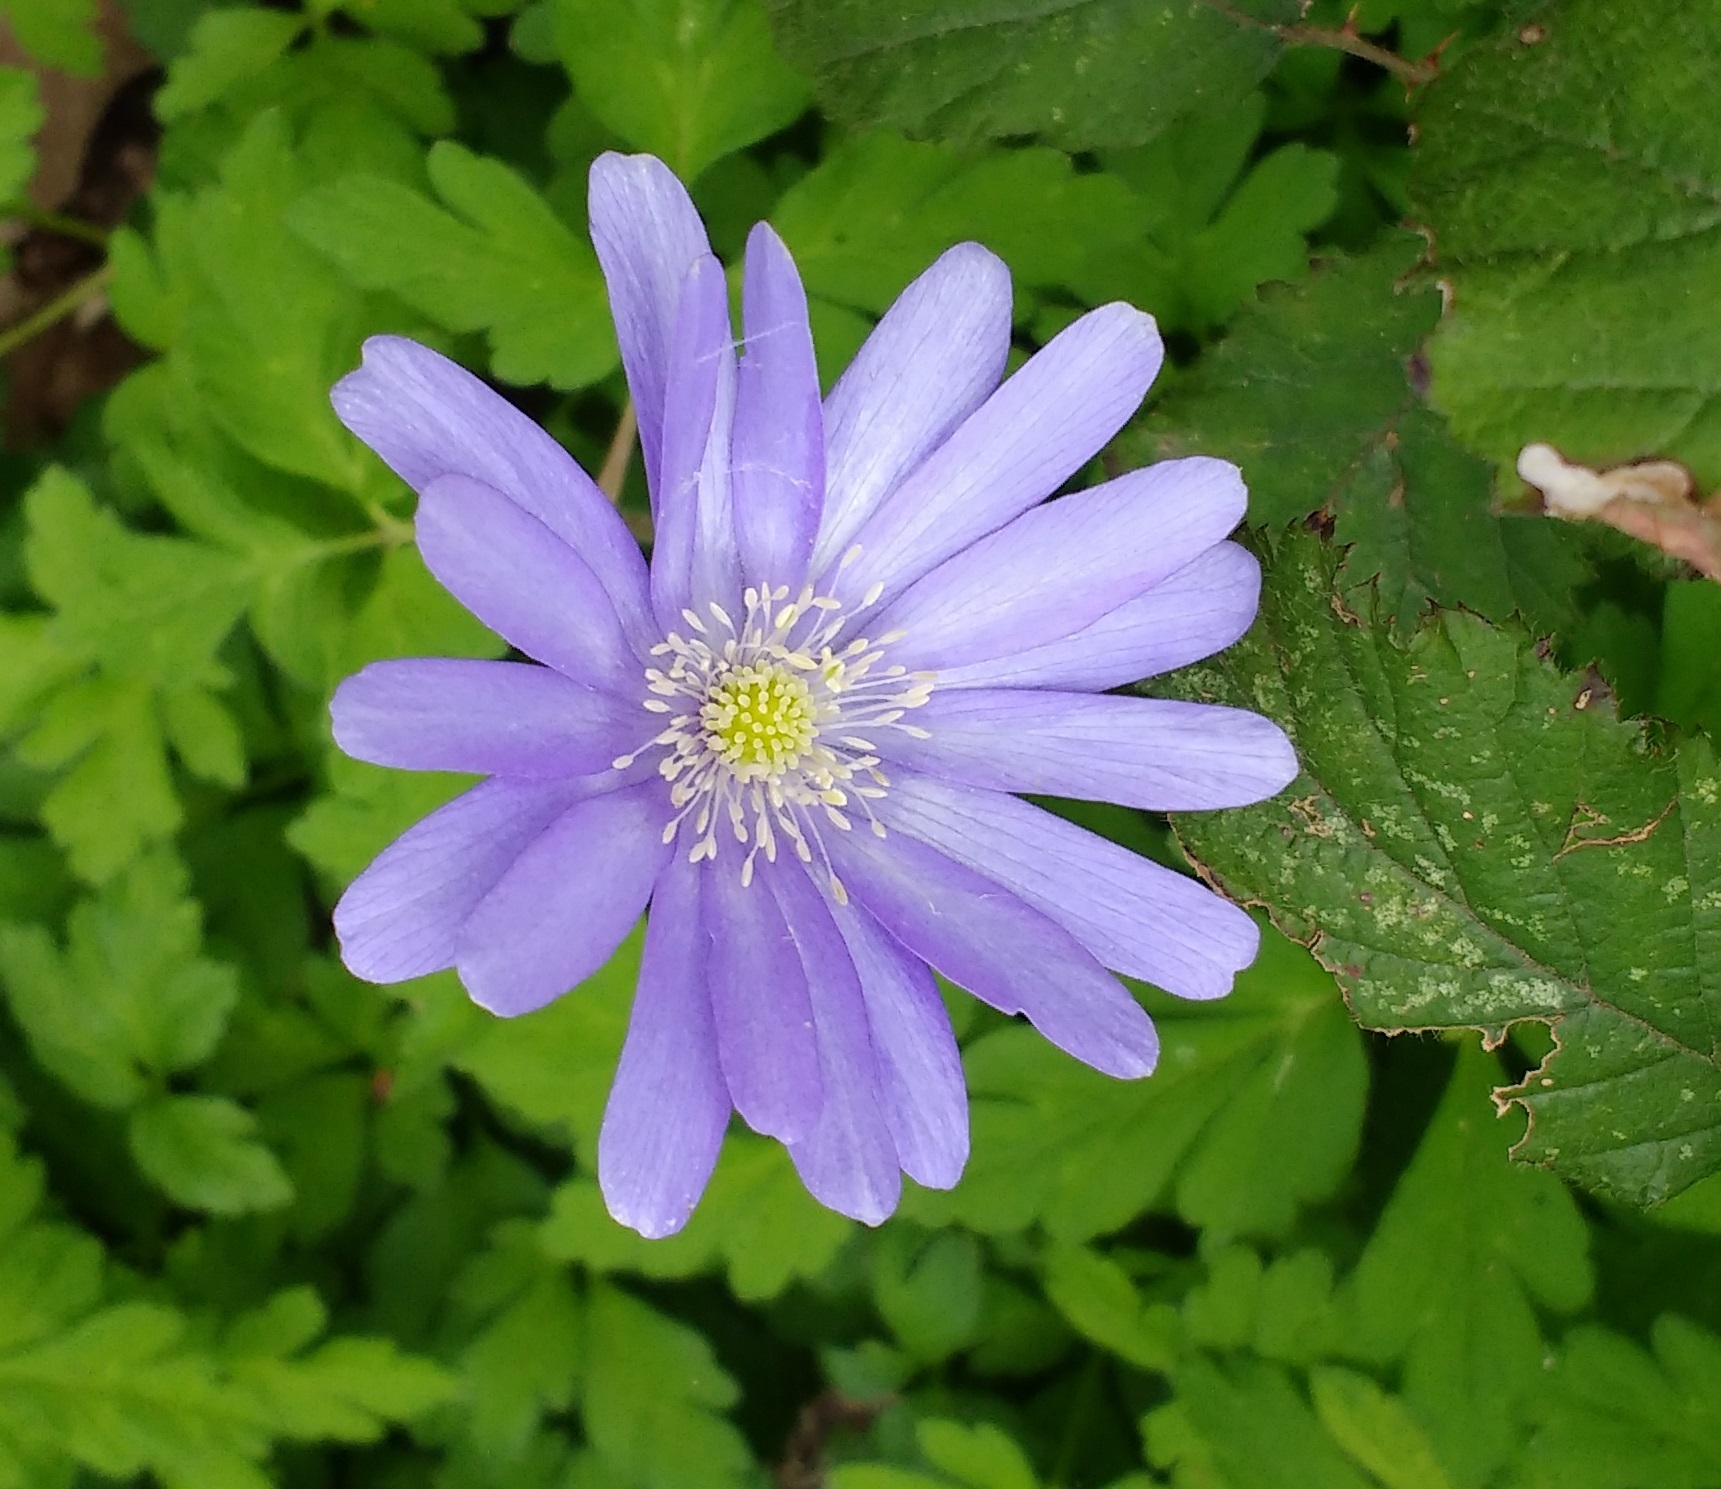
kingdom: Plantae
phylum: Tracheophyta
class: Magnoliopsida
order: Ranunculales
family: Ranunculaceae
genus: Anemone
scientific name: Anemone apennina
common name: Blue anemone
